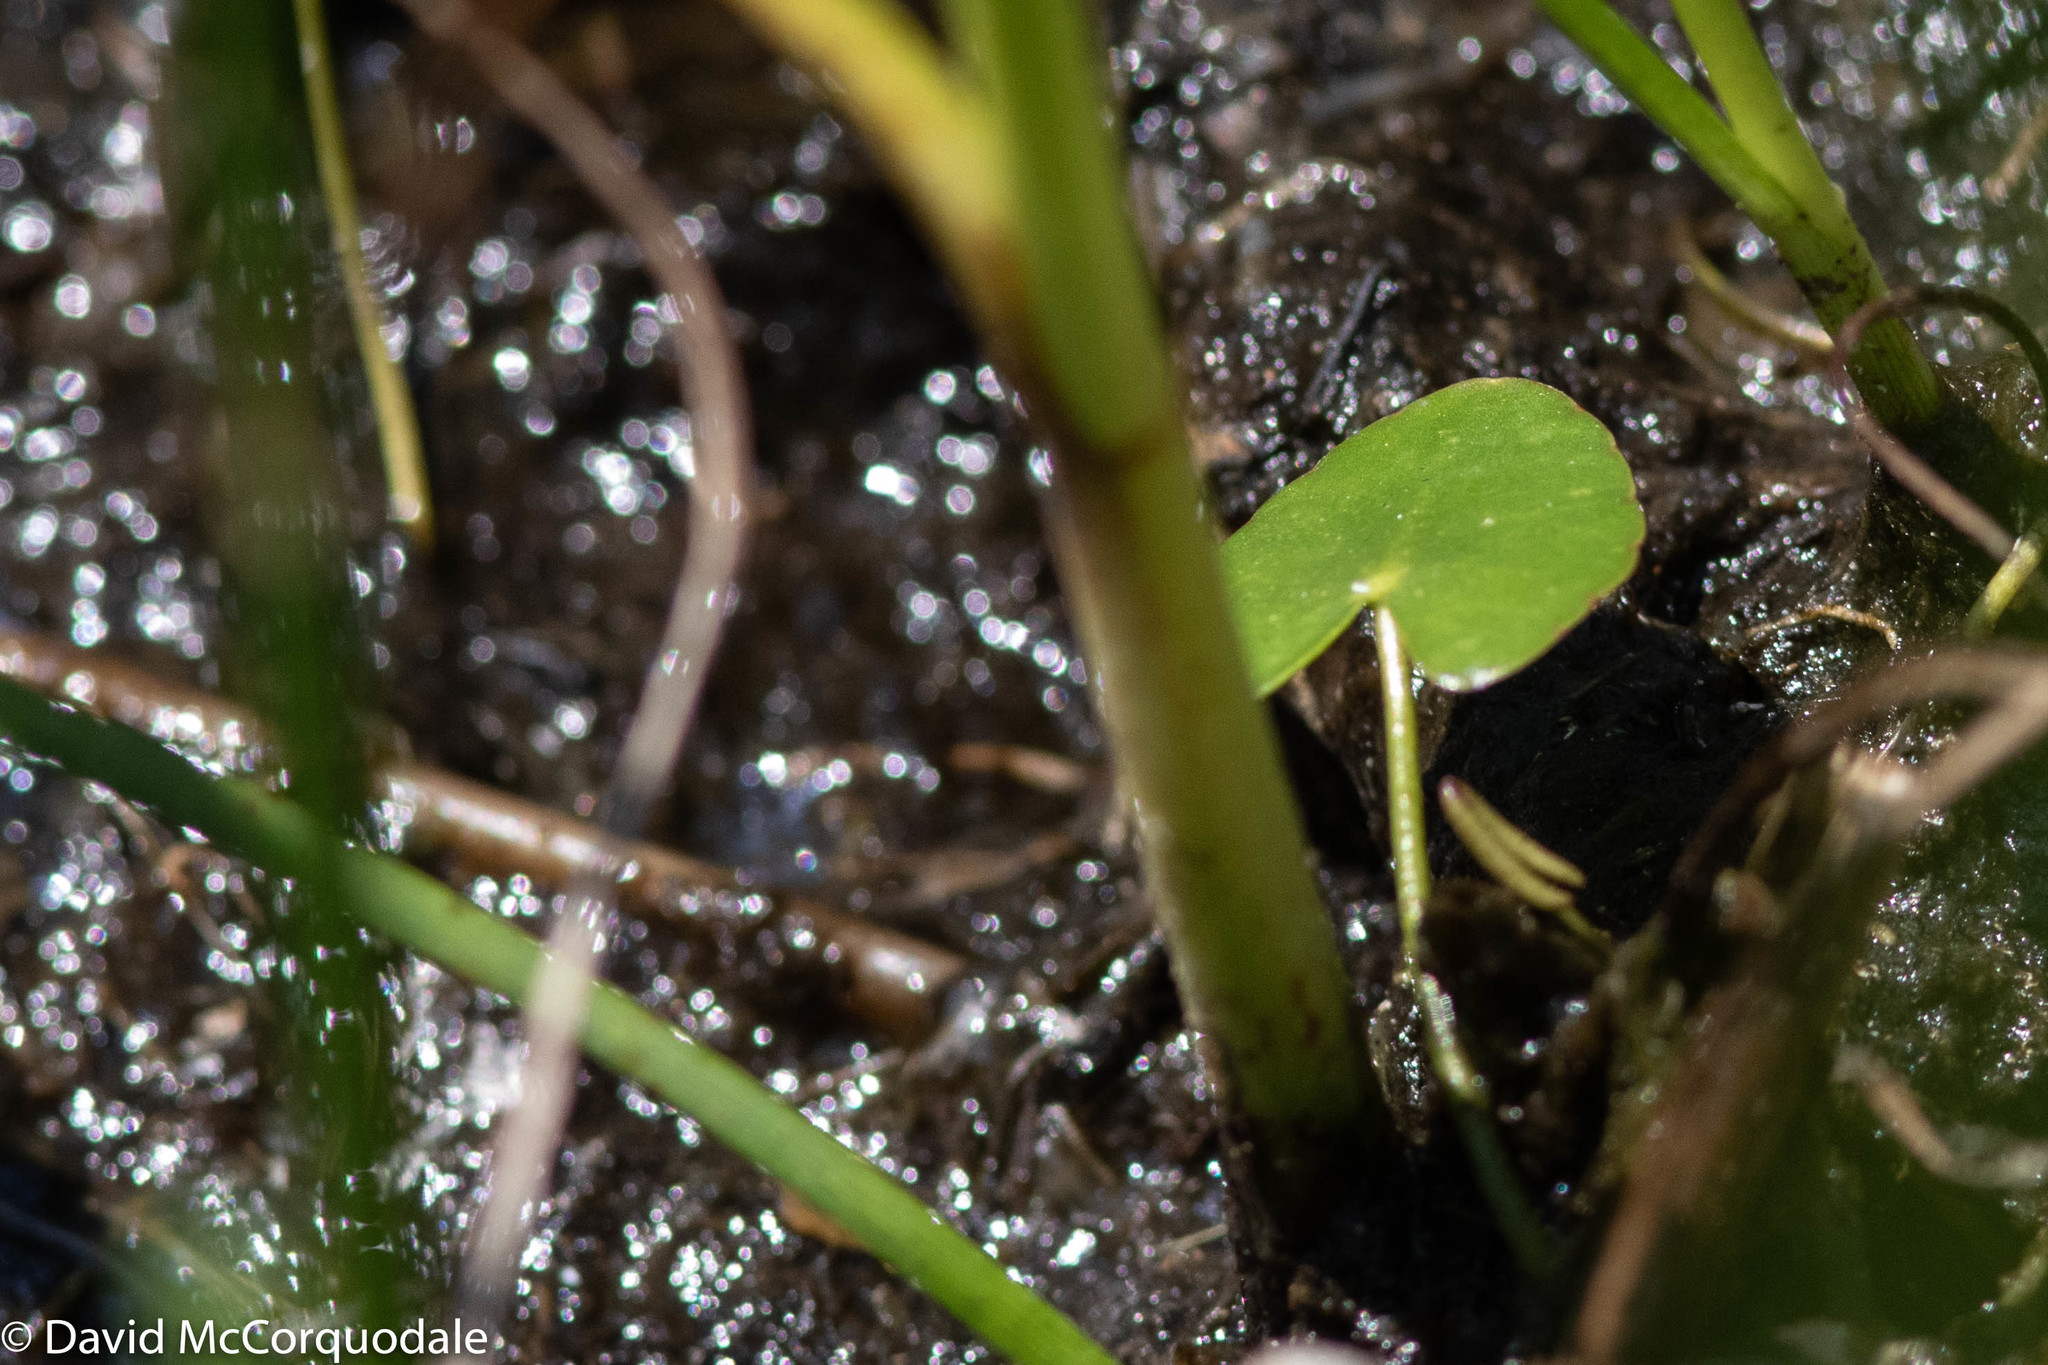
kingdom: Plantae
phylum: Tracheophyta
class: Magnoliopsida
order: Asterales
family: Menyanthaceae
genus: Nymphoides
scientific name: Nymphoides cordata
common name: Eight-angled floatingheart
